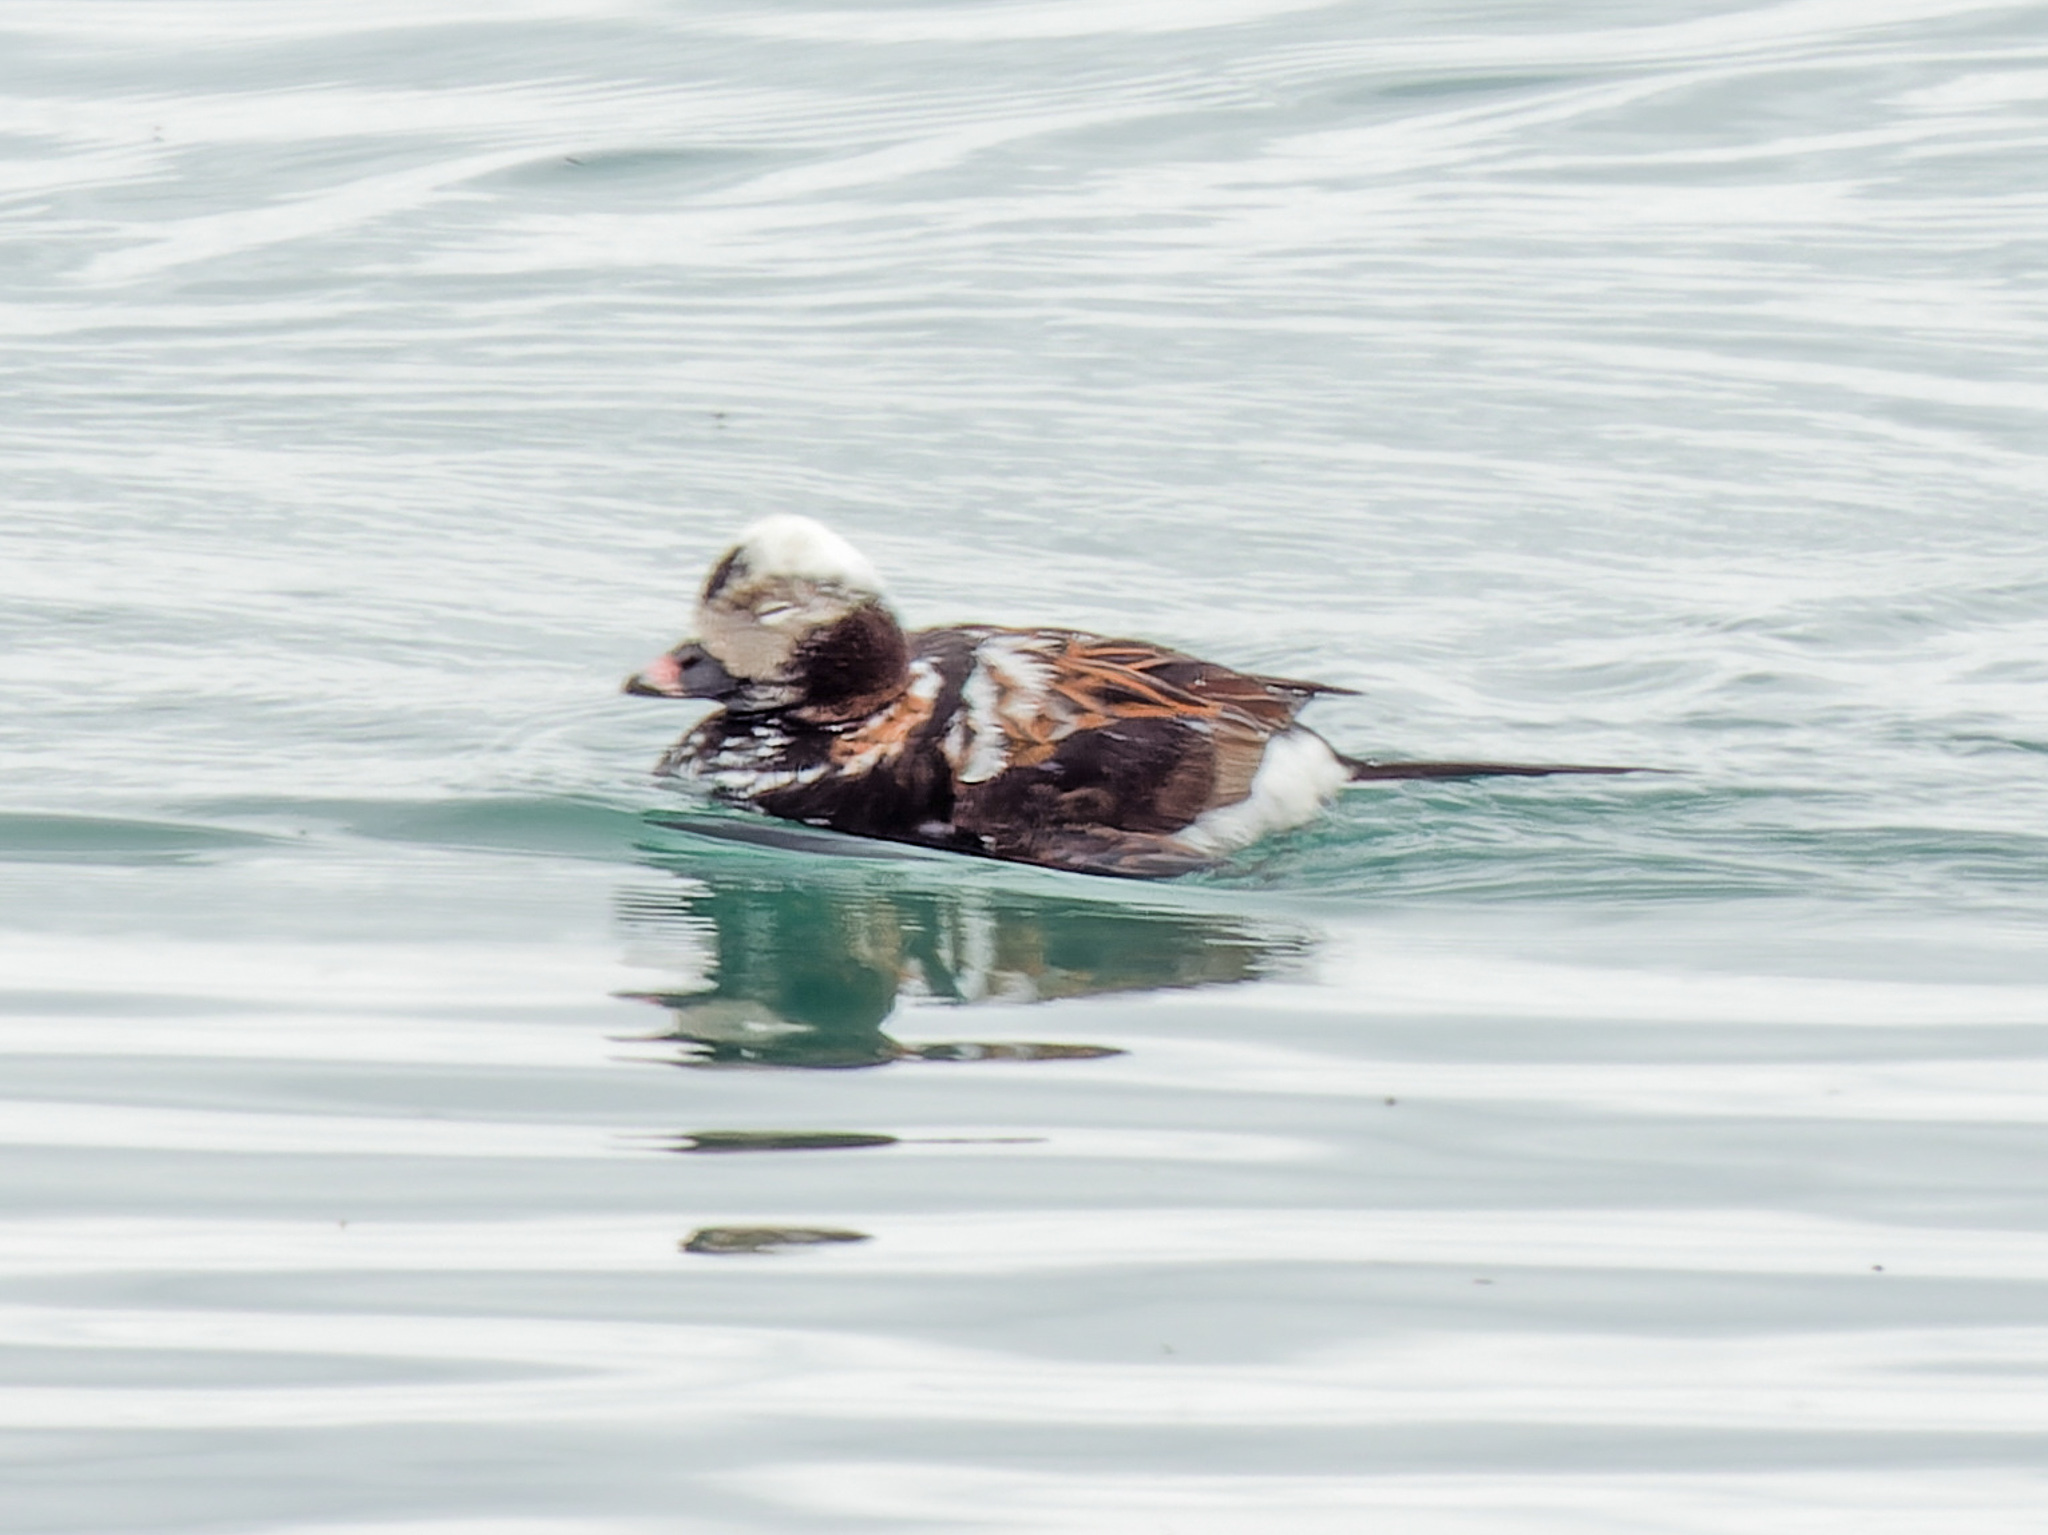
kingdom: Animalia
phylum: Chordata
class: Aves
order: Anseriformes
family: Anatidae
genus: Clangula
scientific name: Clangula hyemalis
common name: Long-tailed duck
